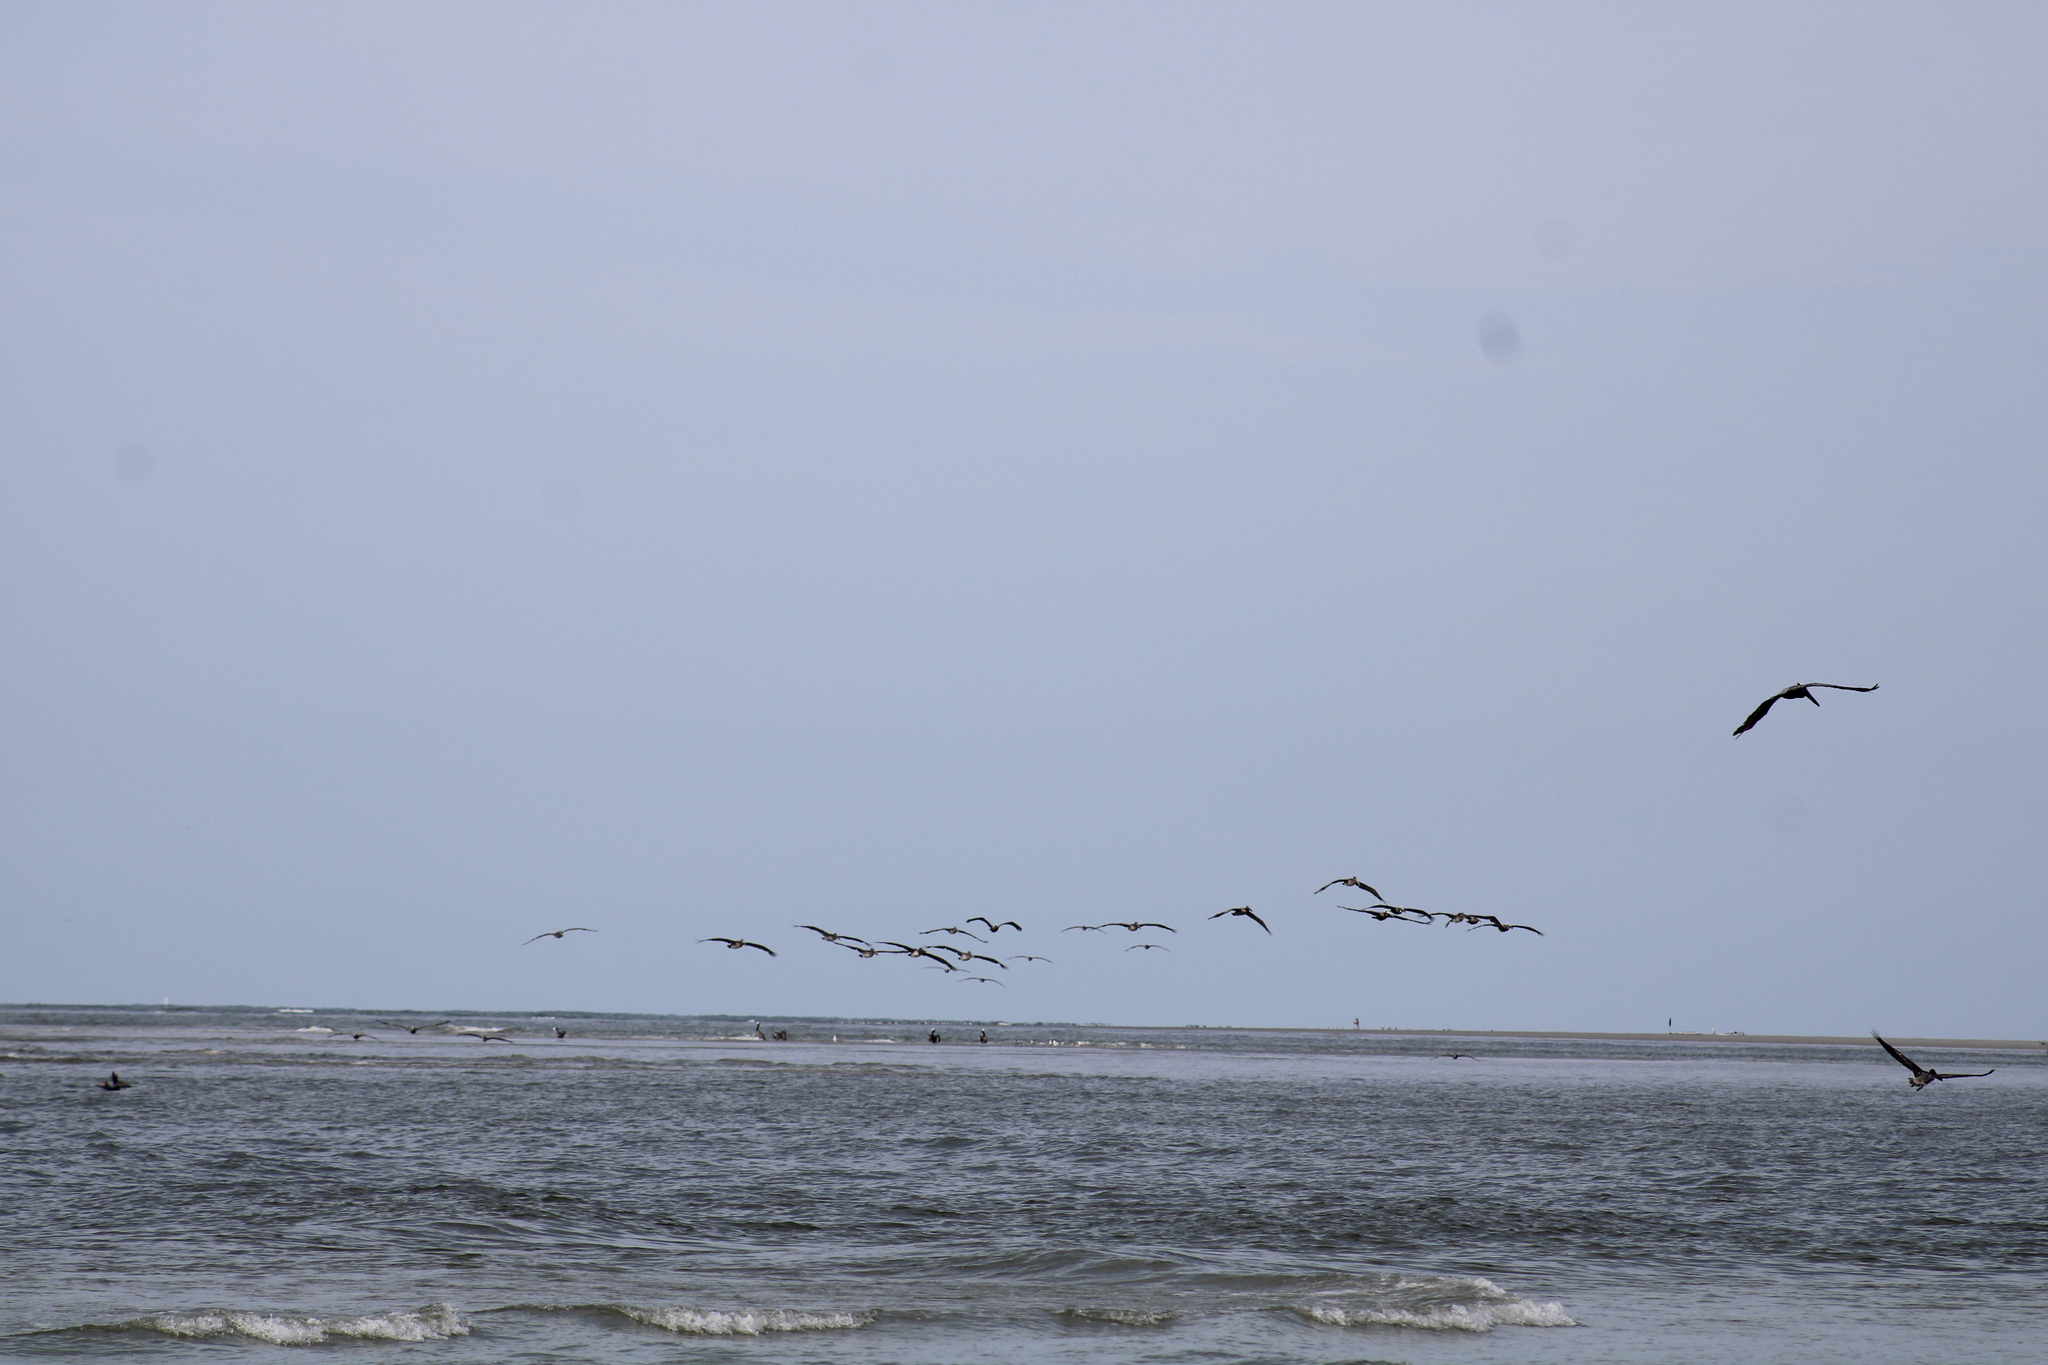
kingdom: Animalia
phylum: Chordata
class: Aves
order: Pelecaniformes
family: Pelecanidae
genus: Pelecanus
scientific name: Pelecanus occidentalis
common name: Brown pelican
